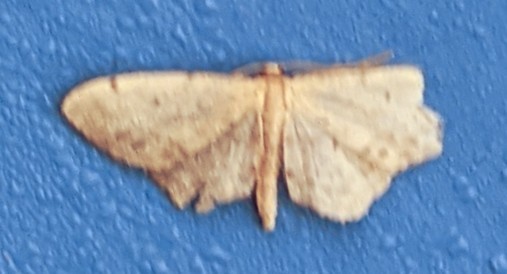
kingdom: Animalia
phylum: Arthropoda
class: Insecta
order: Lepidoptera
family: Geometridae
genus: Idaea
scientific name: Idaea dimidiata
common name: Single-dotted wave
